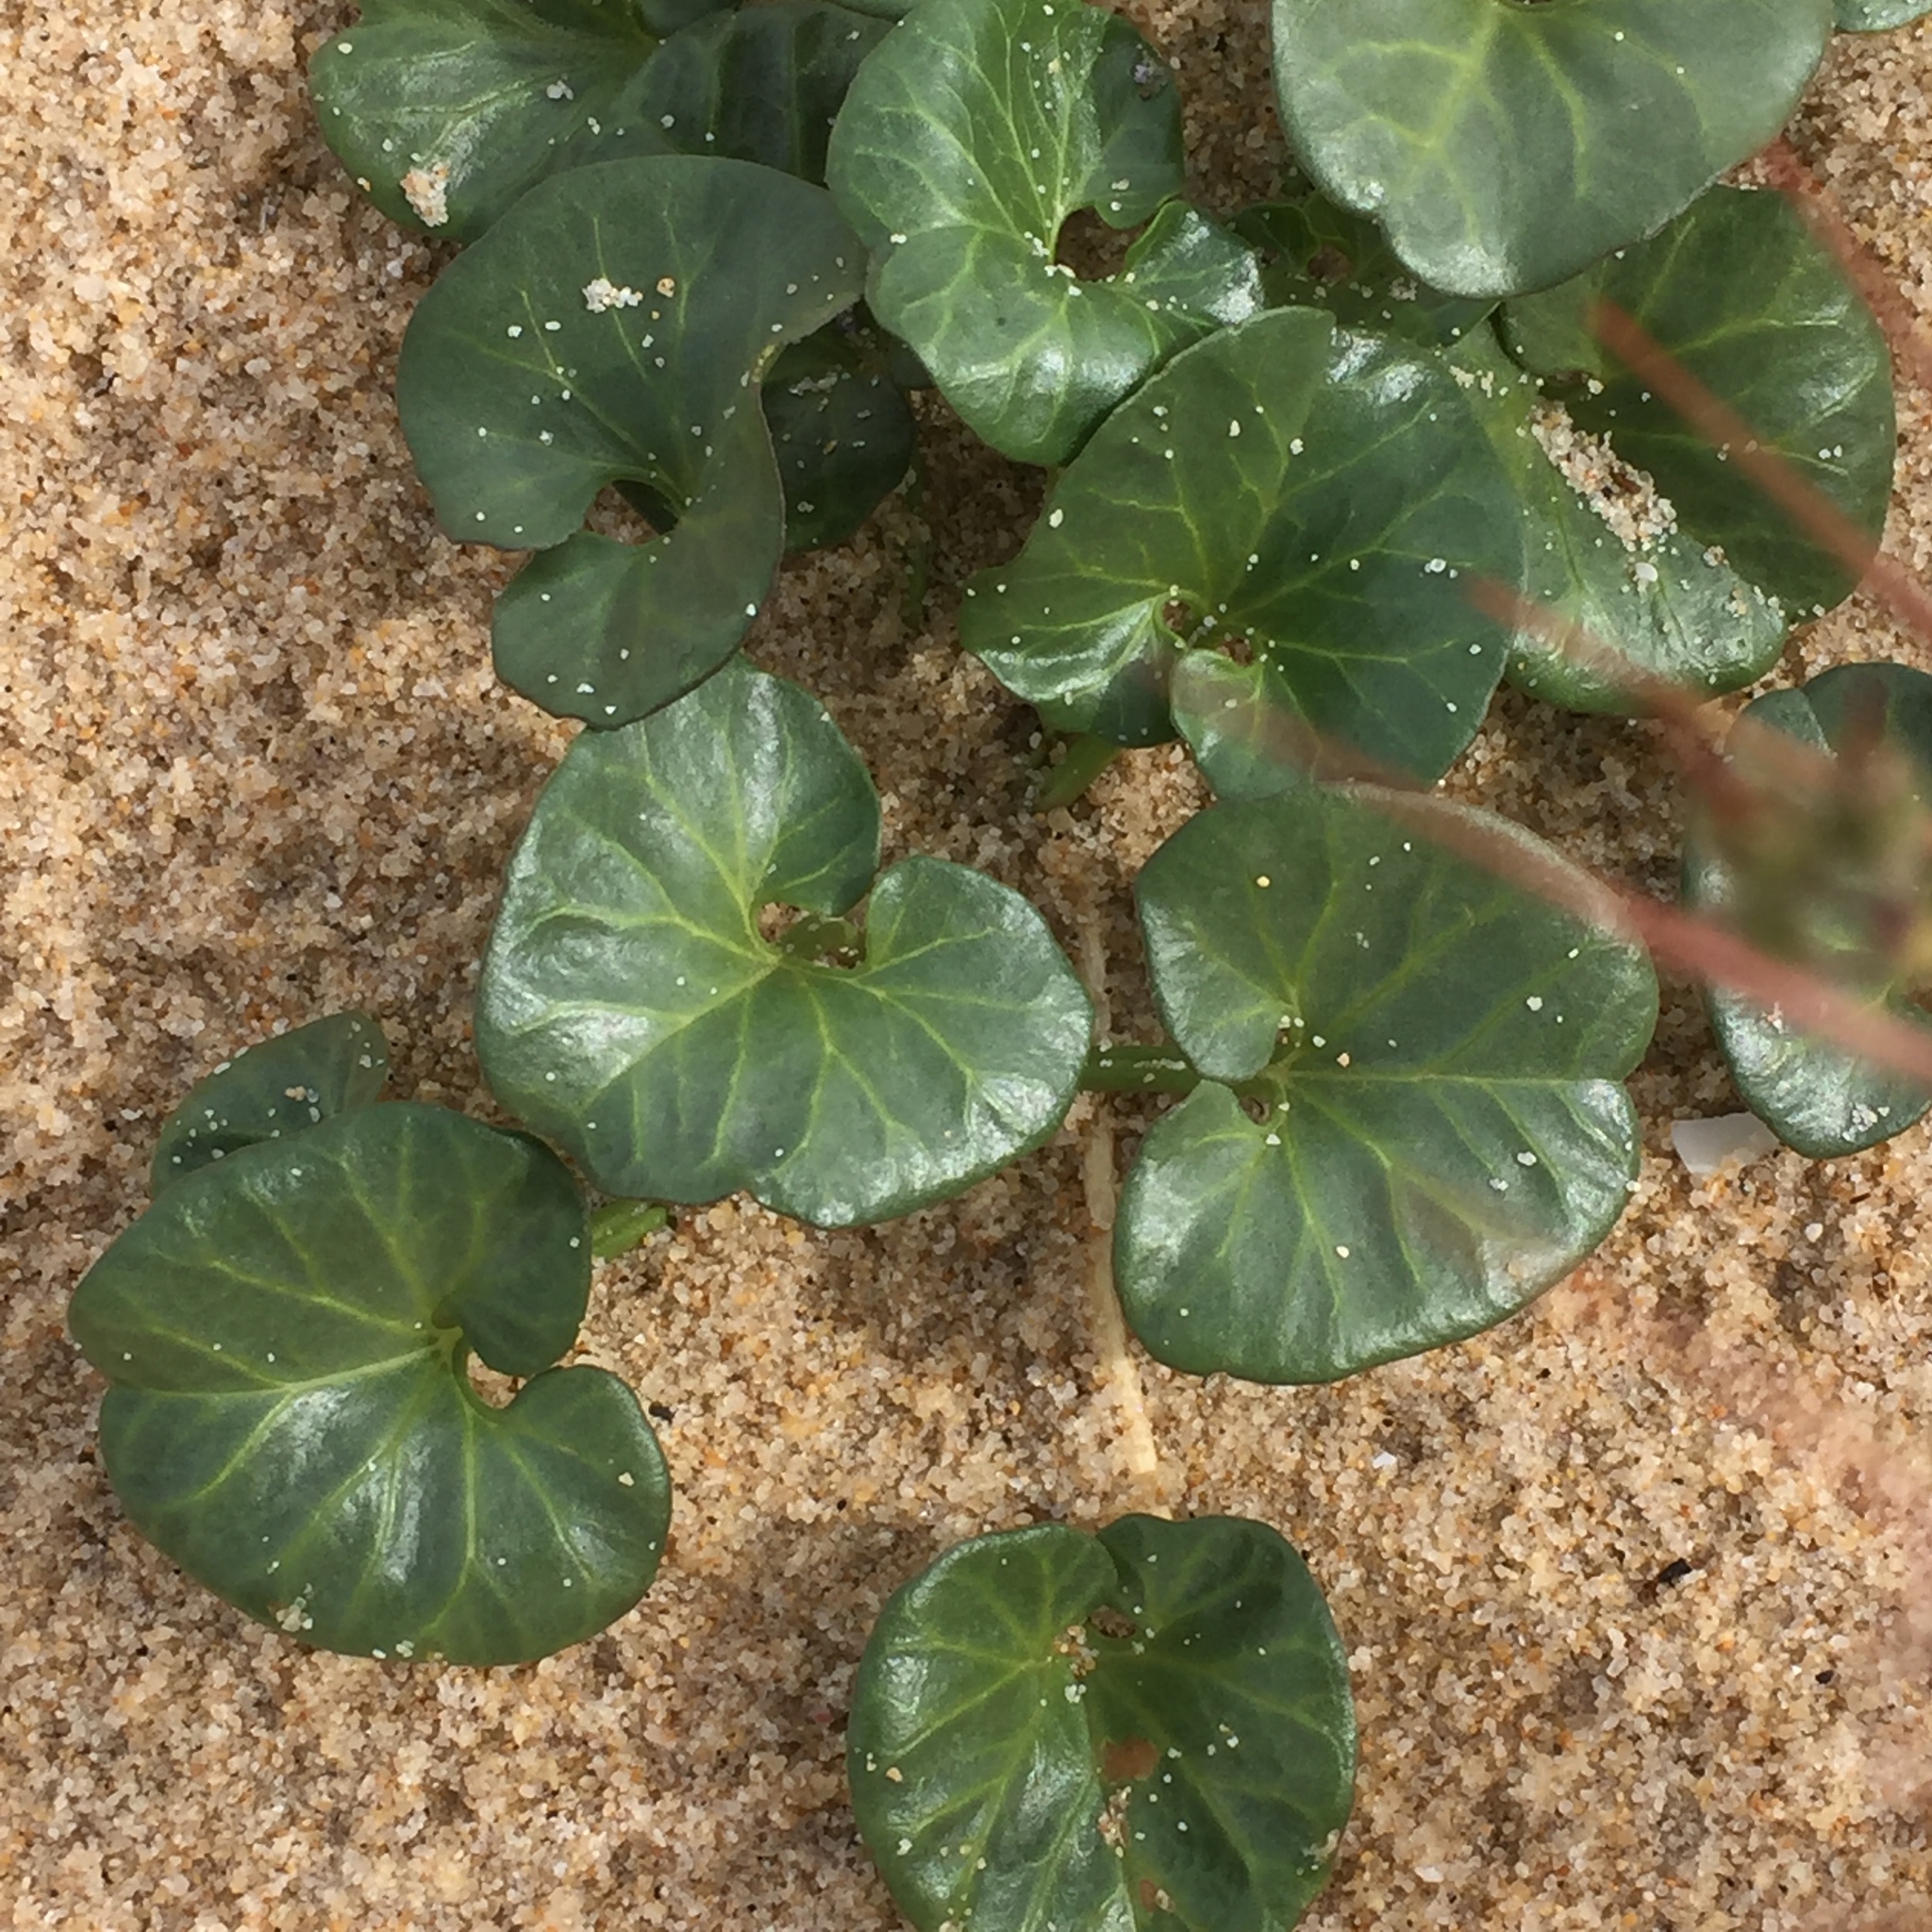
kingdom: Plantae
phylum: Tracheophyta
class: Magnoliopsida
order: Solanales
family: Convolvulaceae
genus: Calystegia
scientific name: Calystegia soldanella
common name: Sea bindweed
